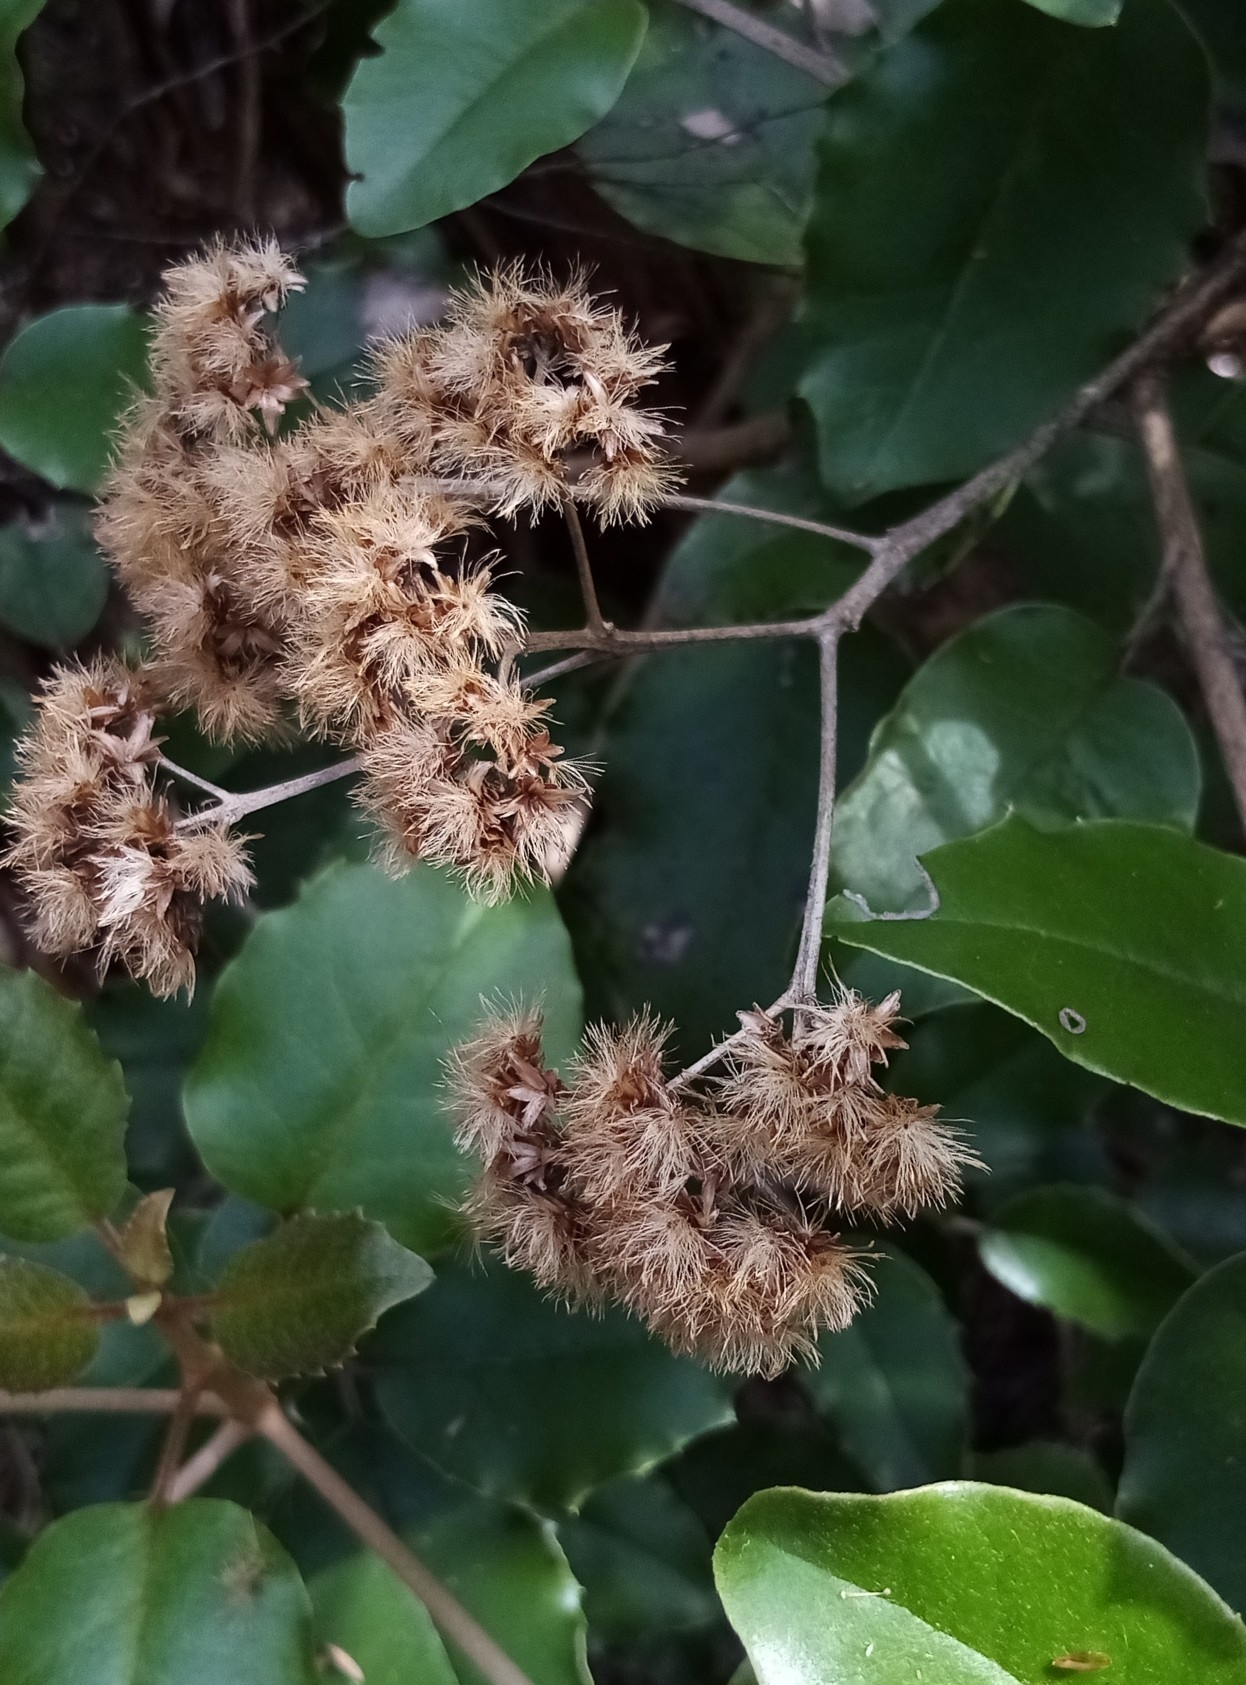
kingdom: Plantae
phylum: Tracheophyta
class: Magnoliopsida
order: Asterales
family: Asteraceae
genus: Olearia
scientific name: Olearia furfuracea
